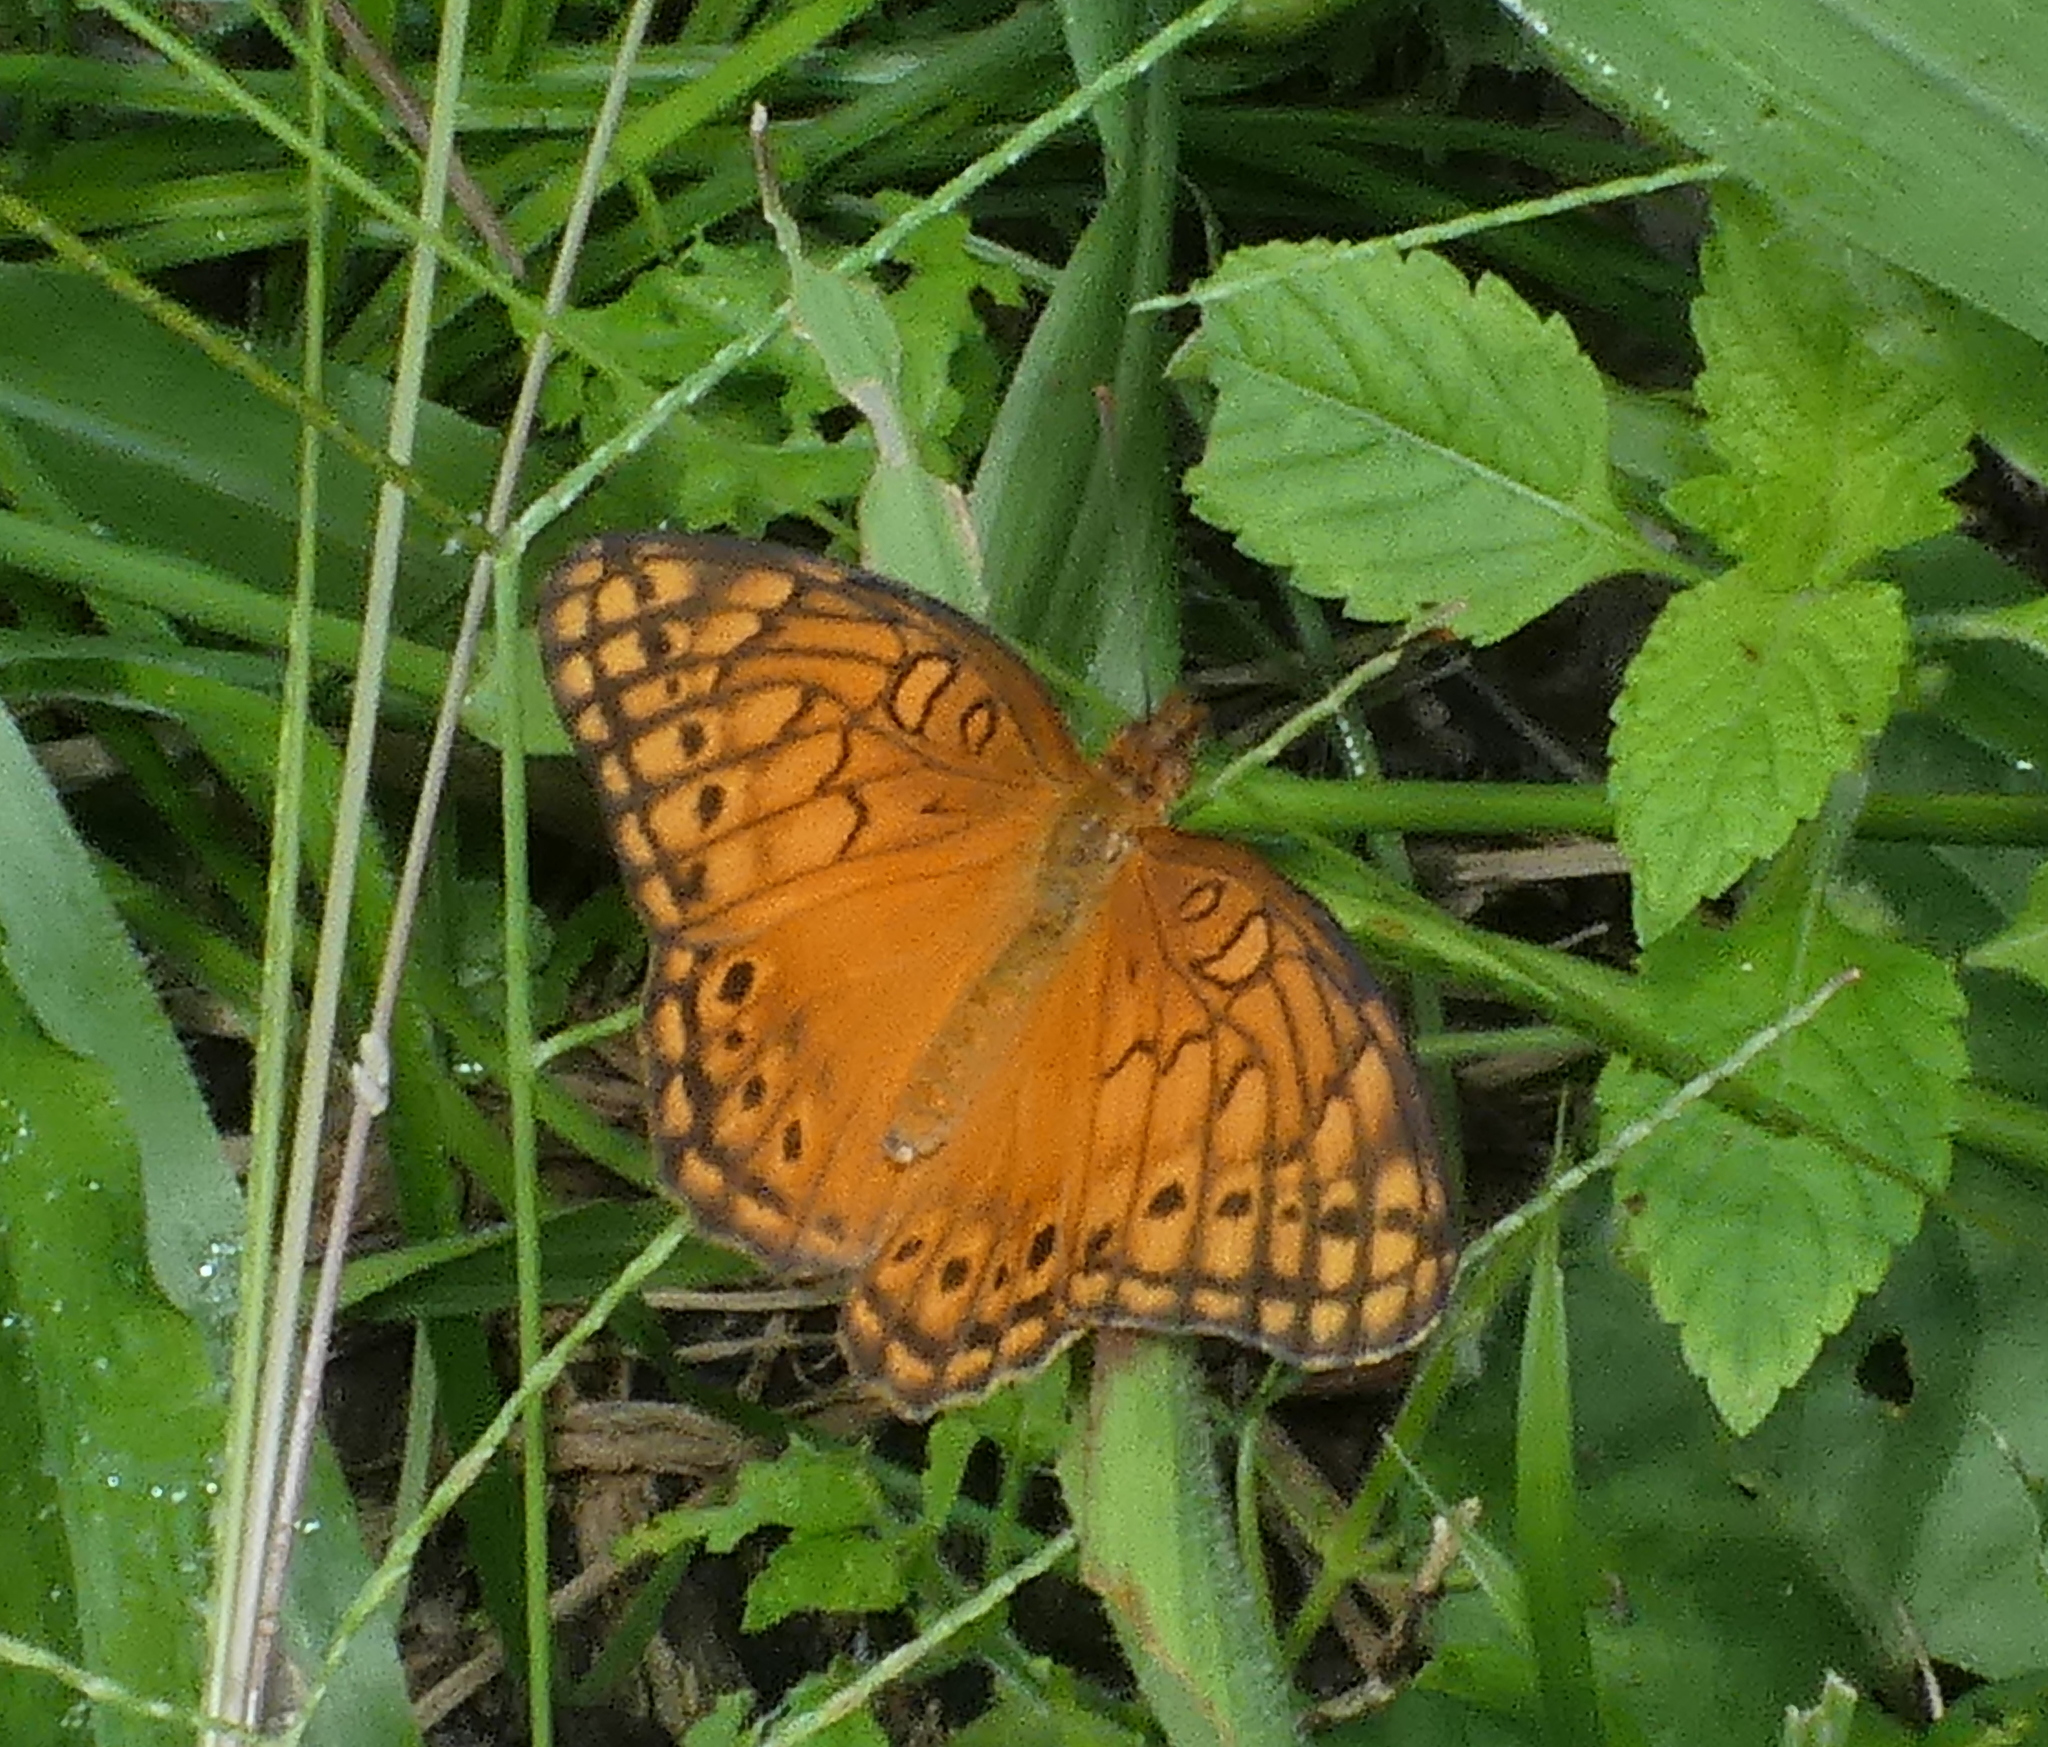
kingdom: Animalia
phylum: Arthropoda
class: Insecta
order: Lepidoptera
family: Nymphalidae
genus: Euptoieta
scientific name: Euptoieta hegesia
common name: Mexican fritillary
